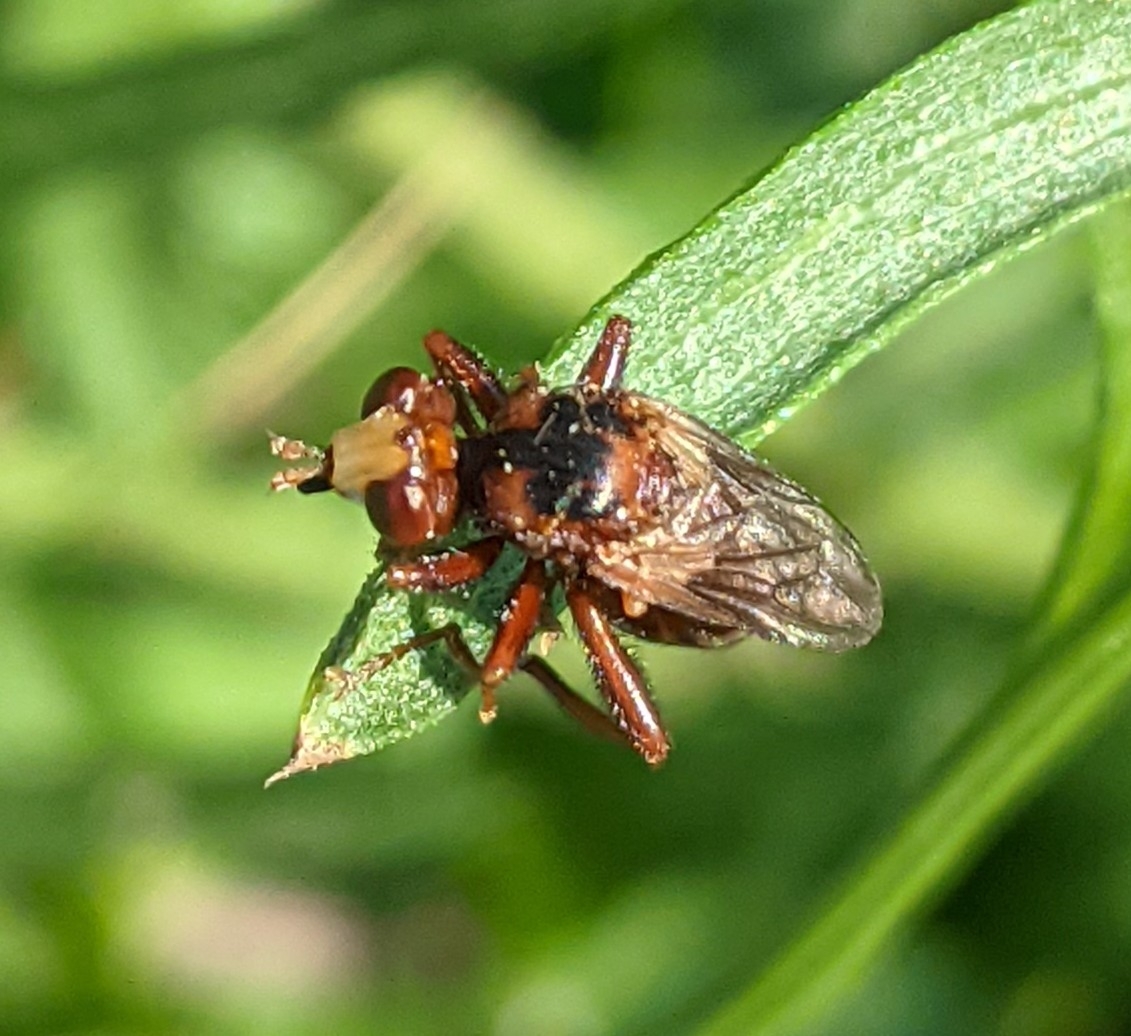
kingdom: Animalia
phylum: Arthropoda
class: Insecta
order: Diptera
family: Conopidae
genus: Sicus
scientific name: Sicus ferrugineus
